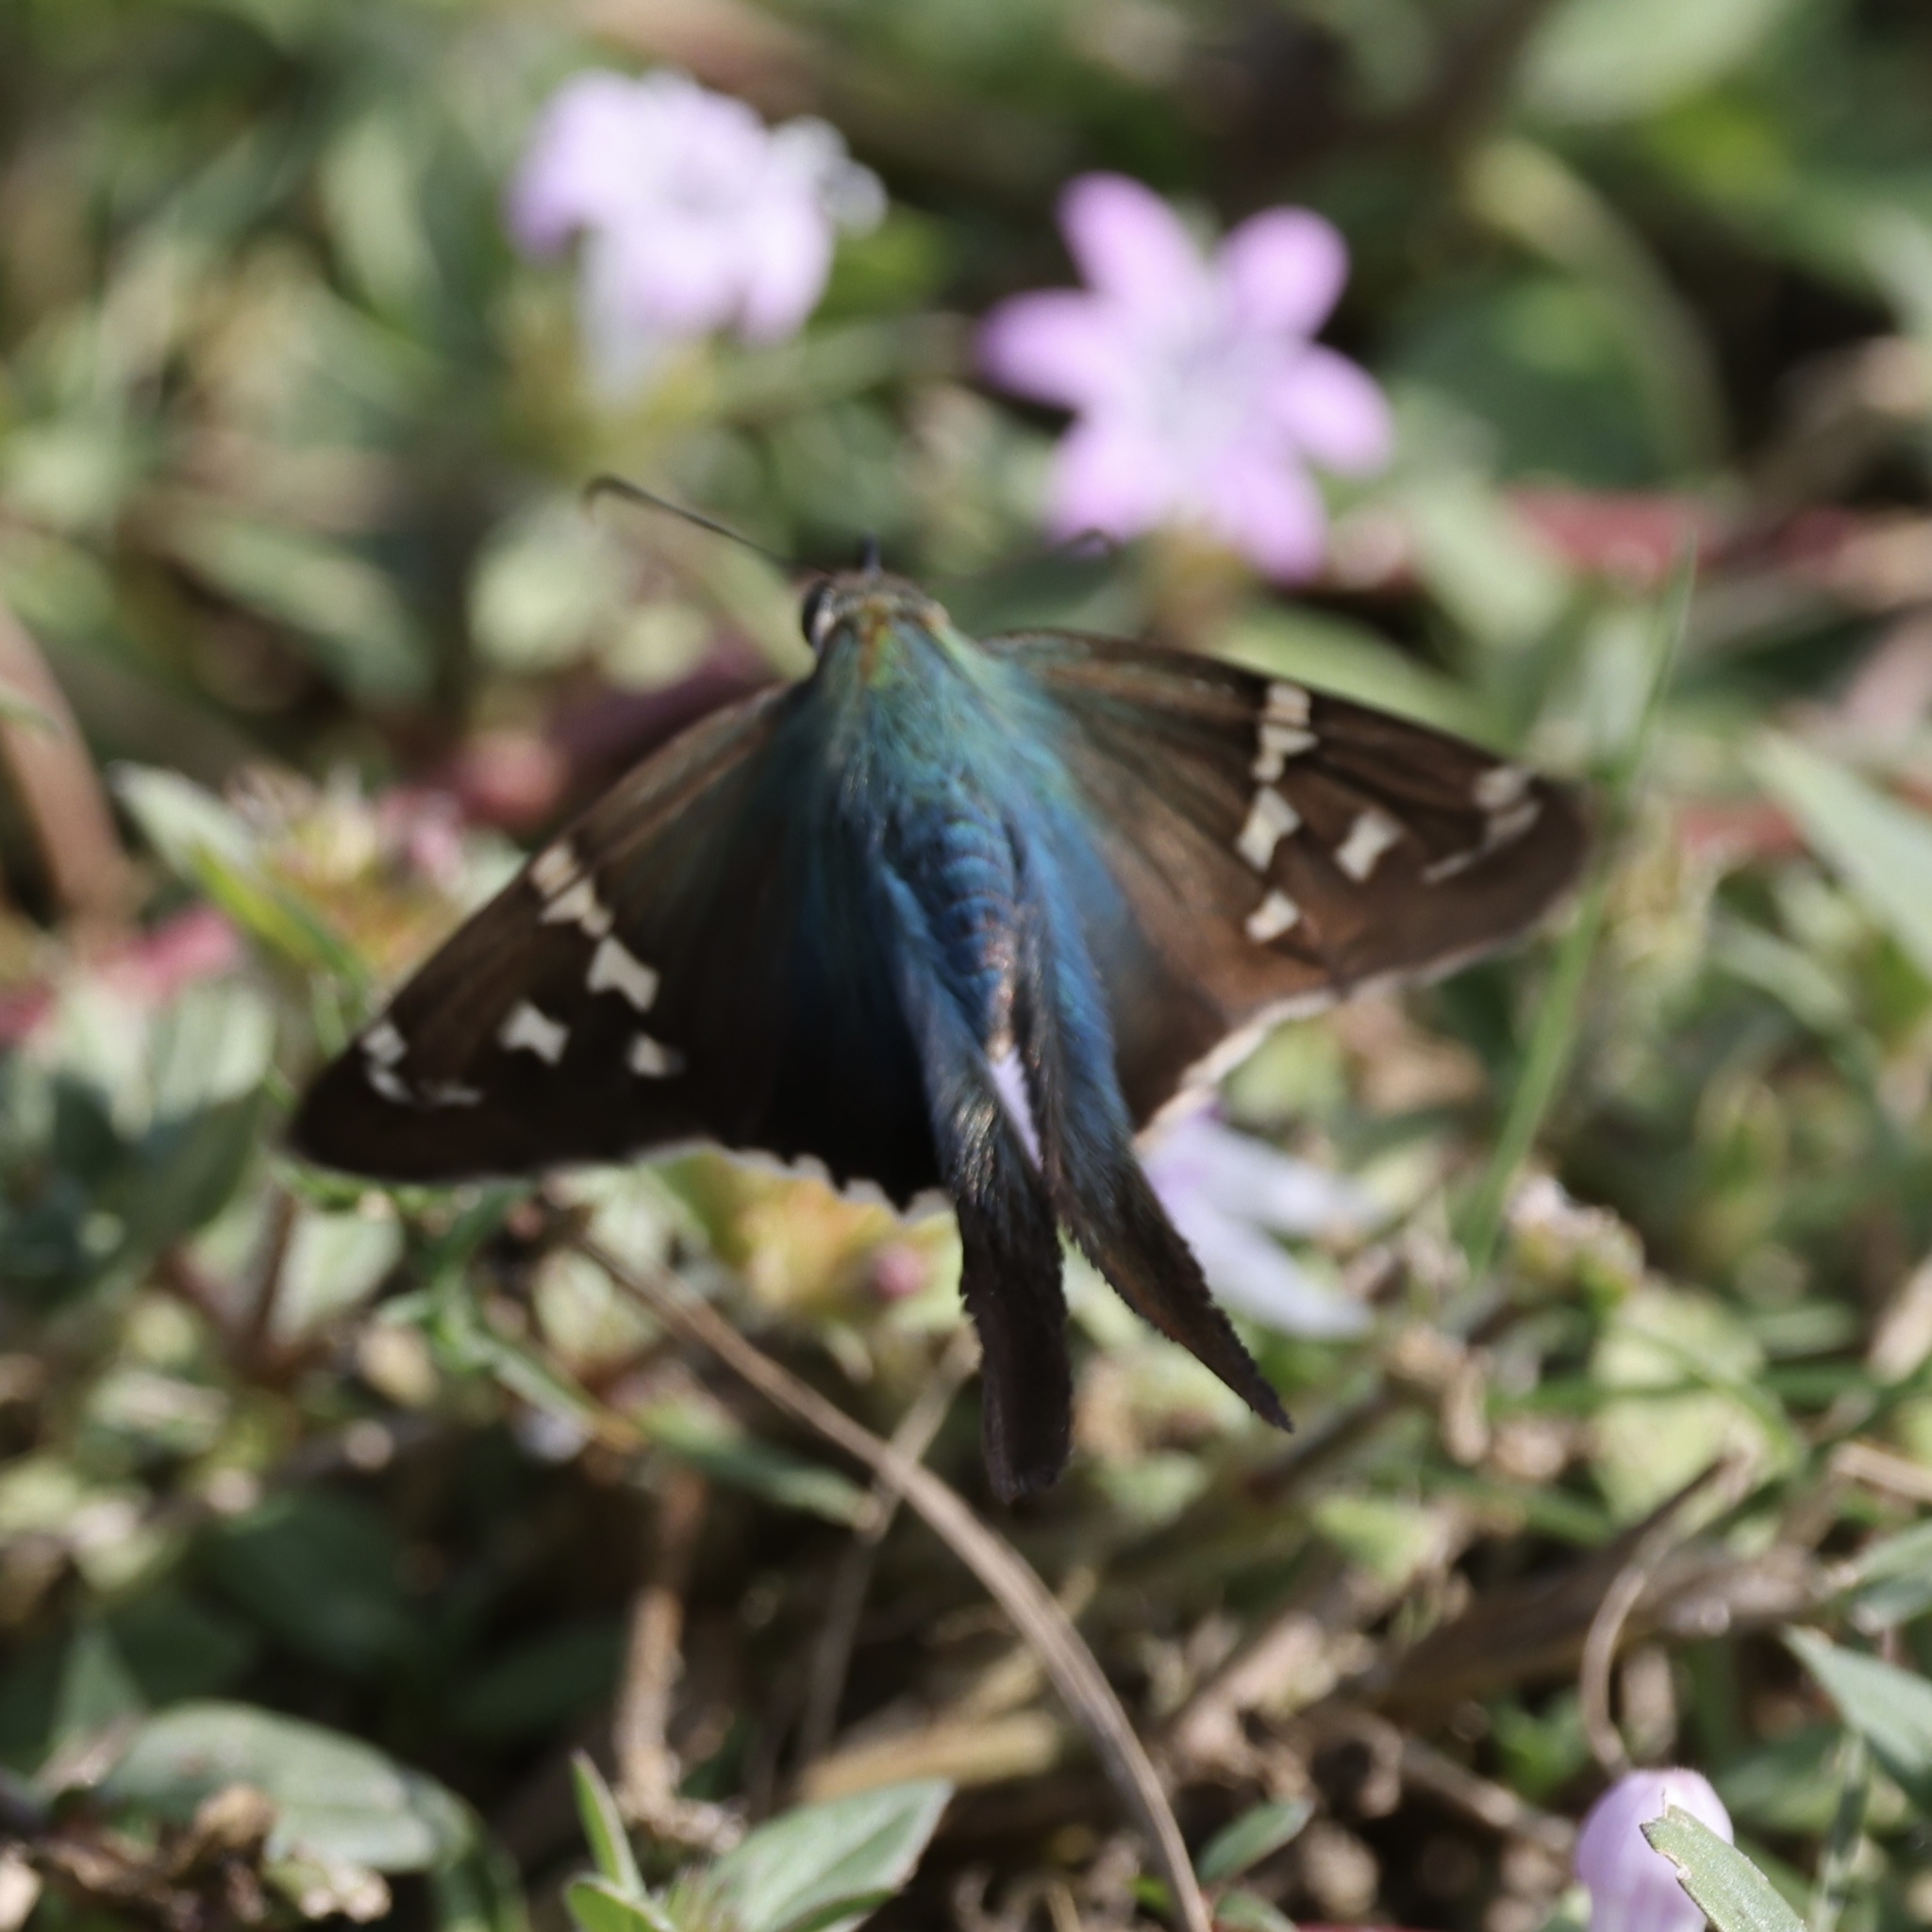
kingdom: Animalia
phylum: Arthropoda
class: Insecta
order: Lepidoptera
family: Hesperiidae
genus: Urbanus
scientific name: Urbanus proteus
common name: Long-tailed skipper
